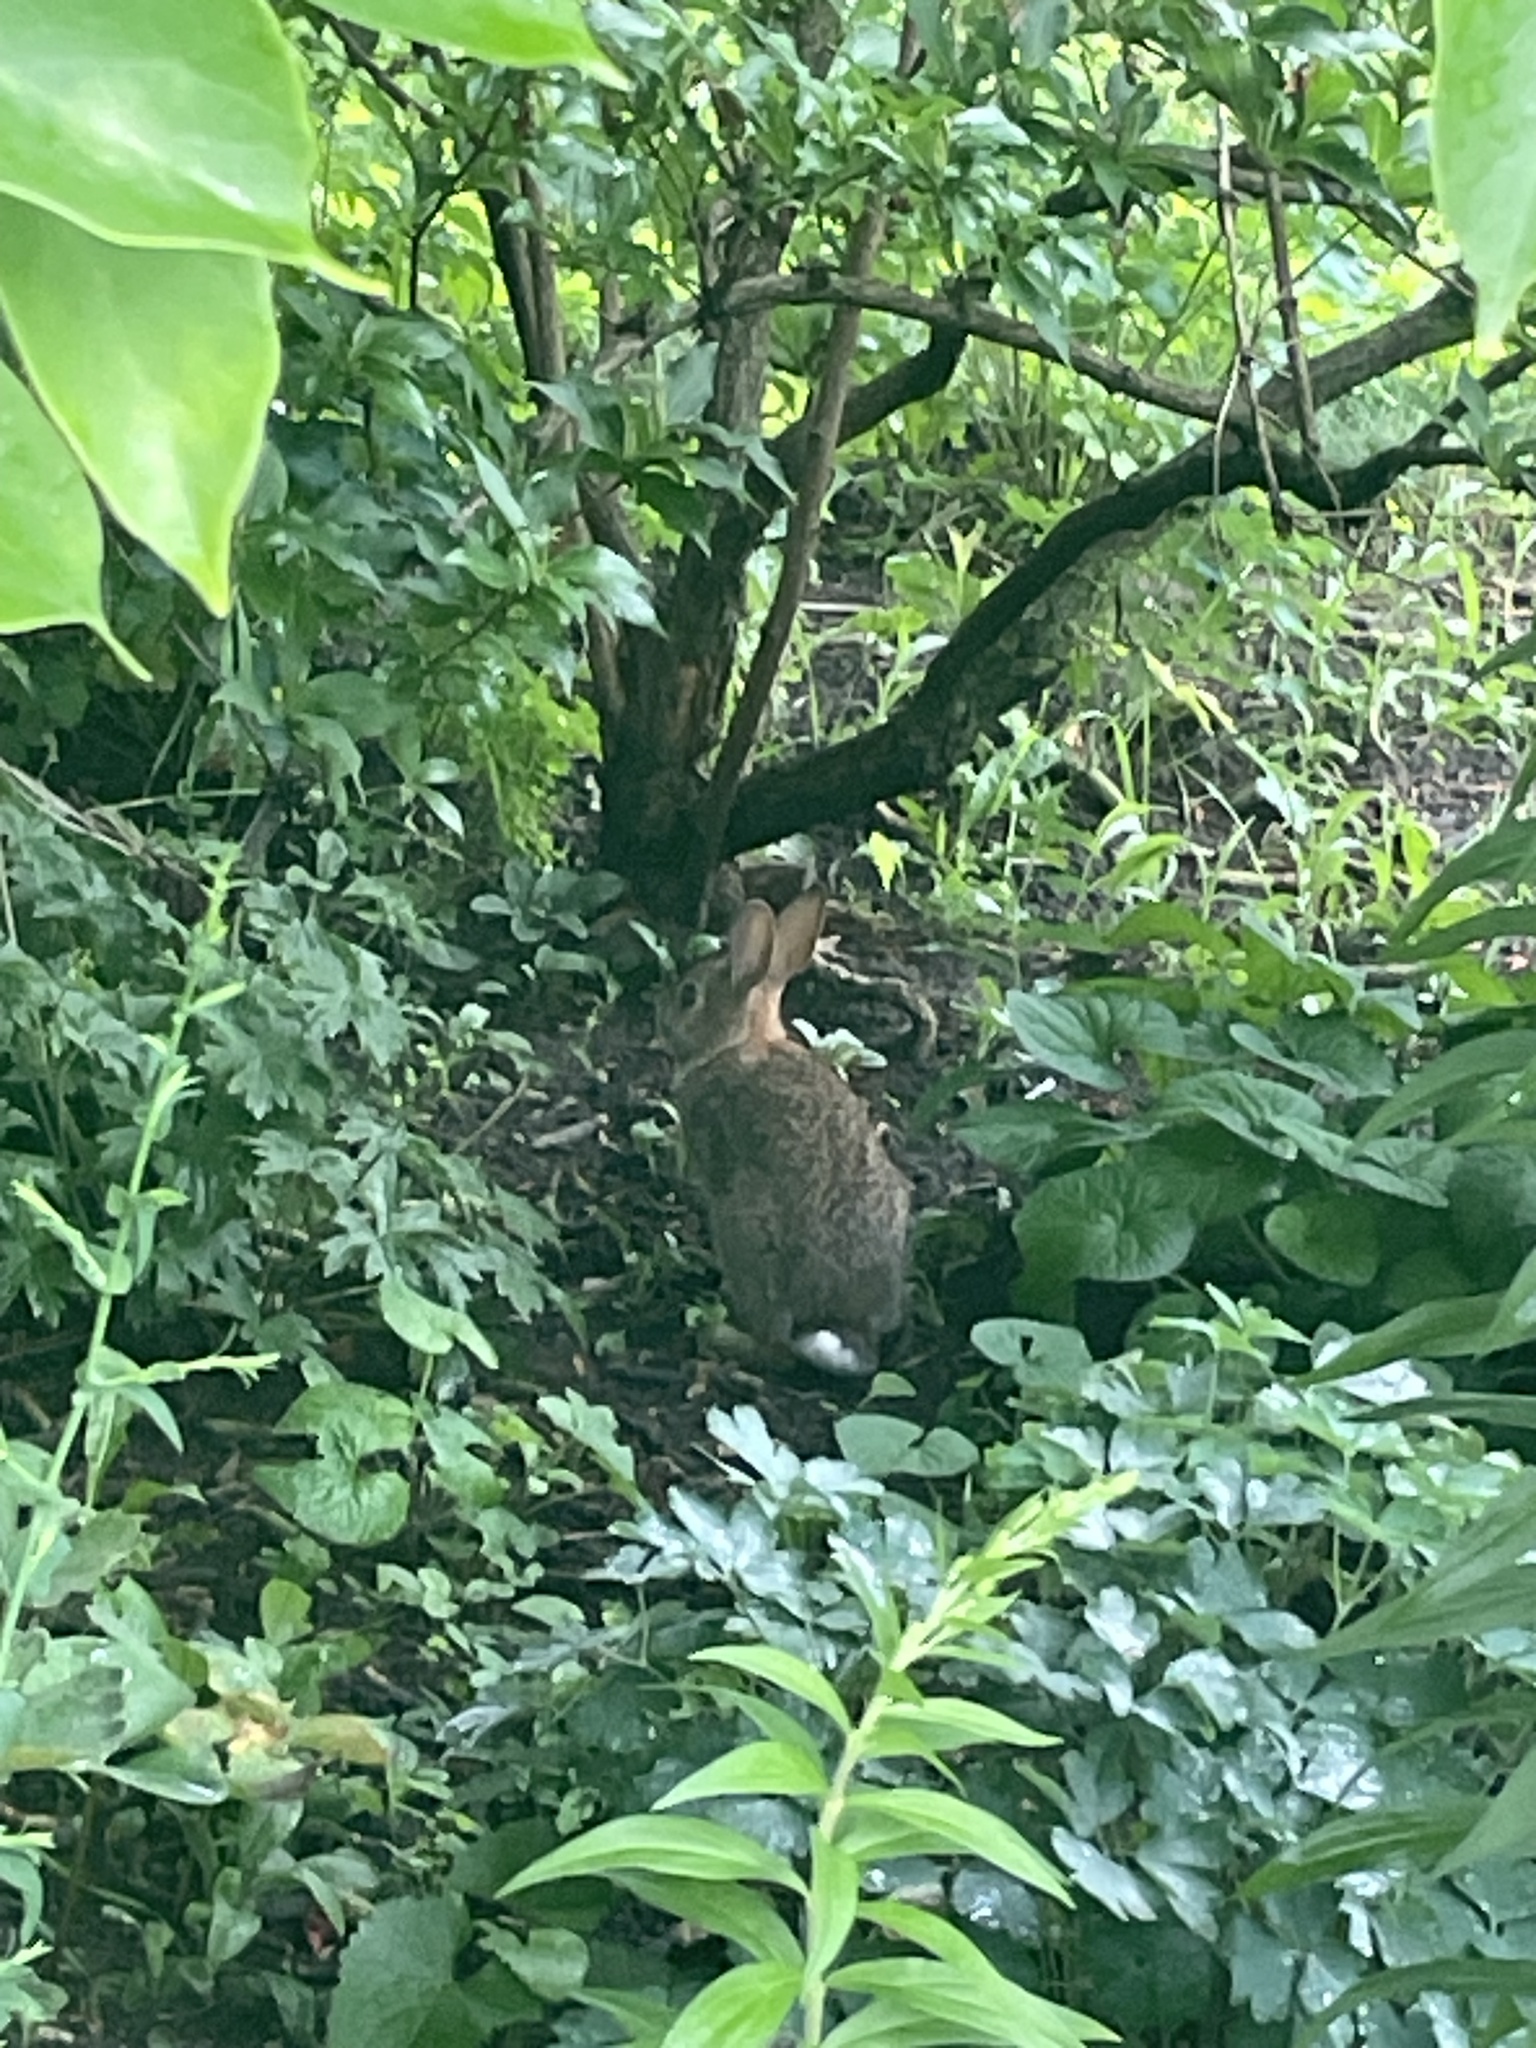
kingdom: Animalia
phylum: Chordata
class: Mammalia
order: Lagomorpha
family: Leporidae
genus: Sylvilagus
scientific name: Sylvilagus floridanus
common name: Eastern cottontail
